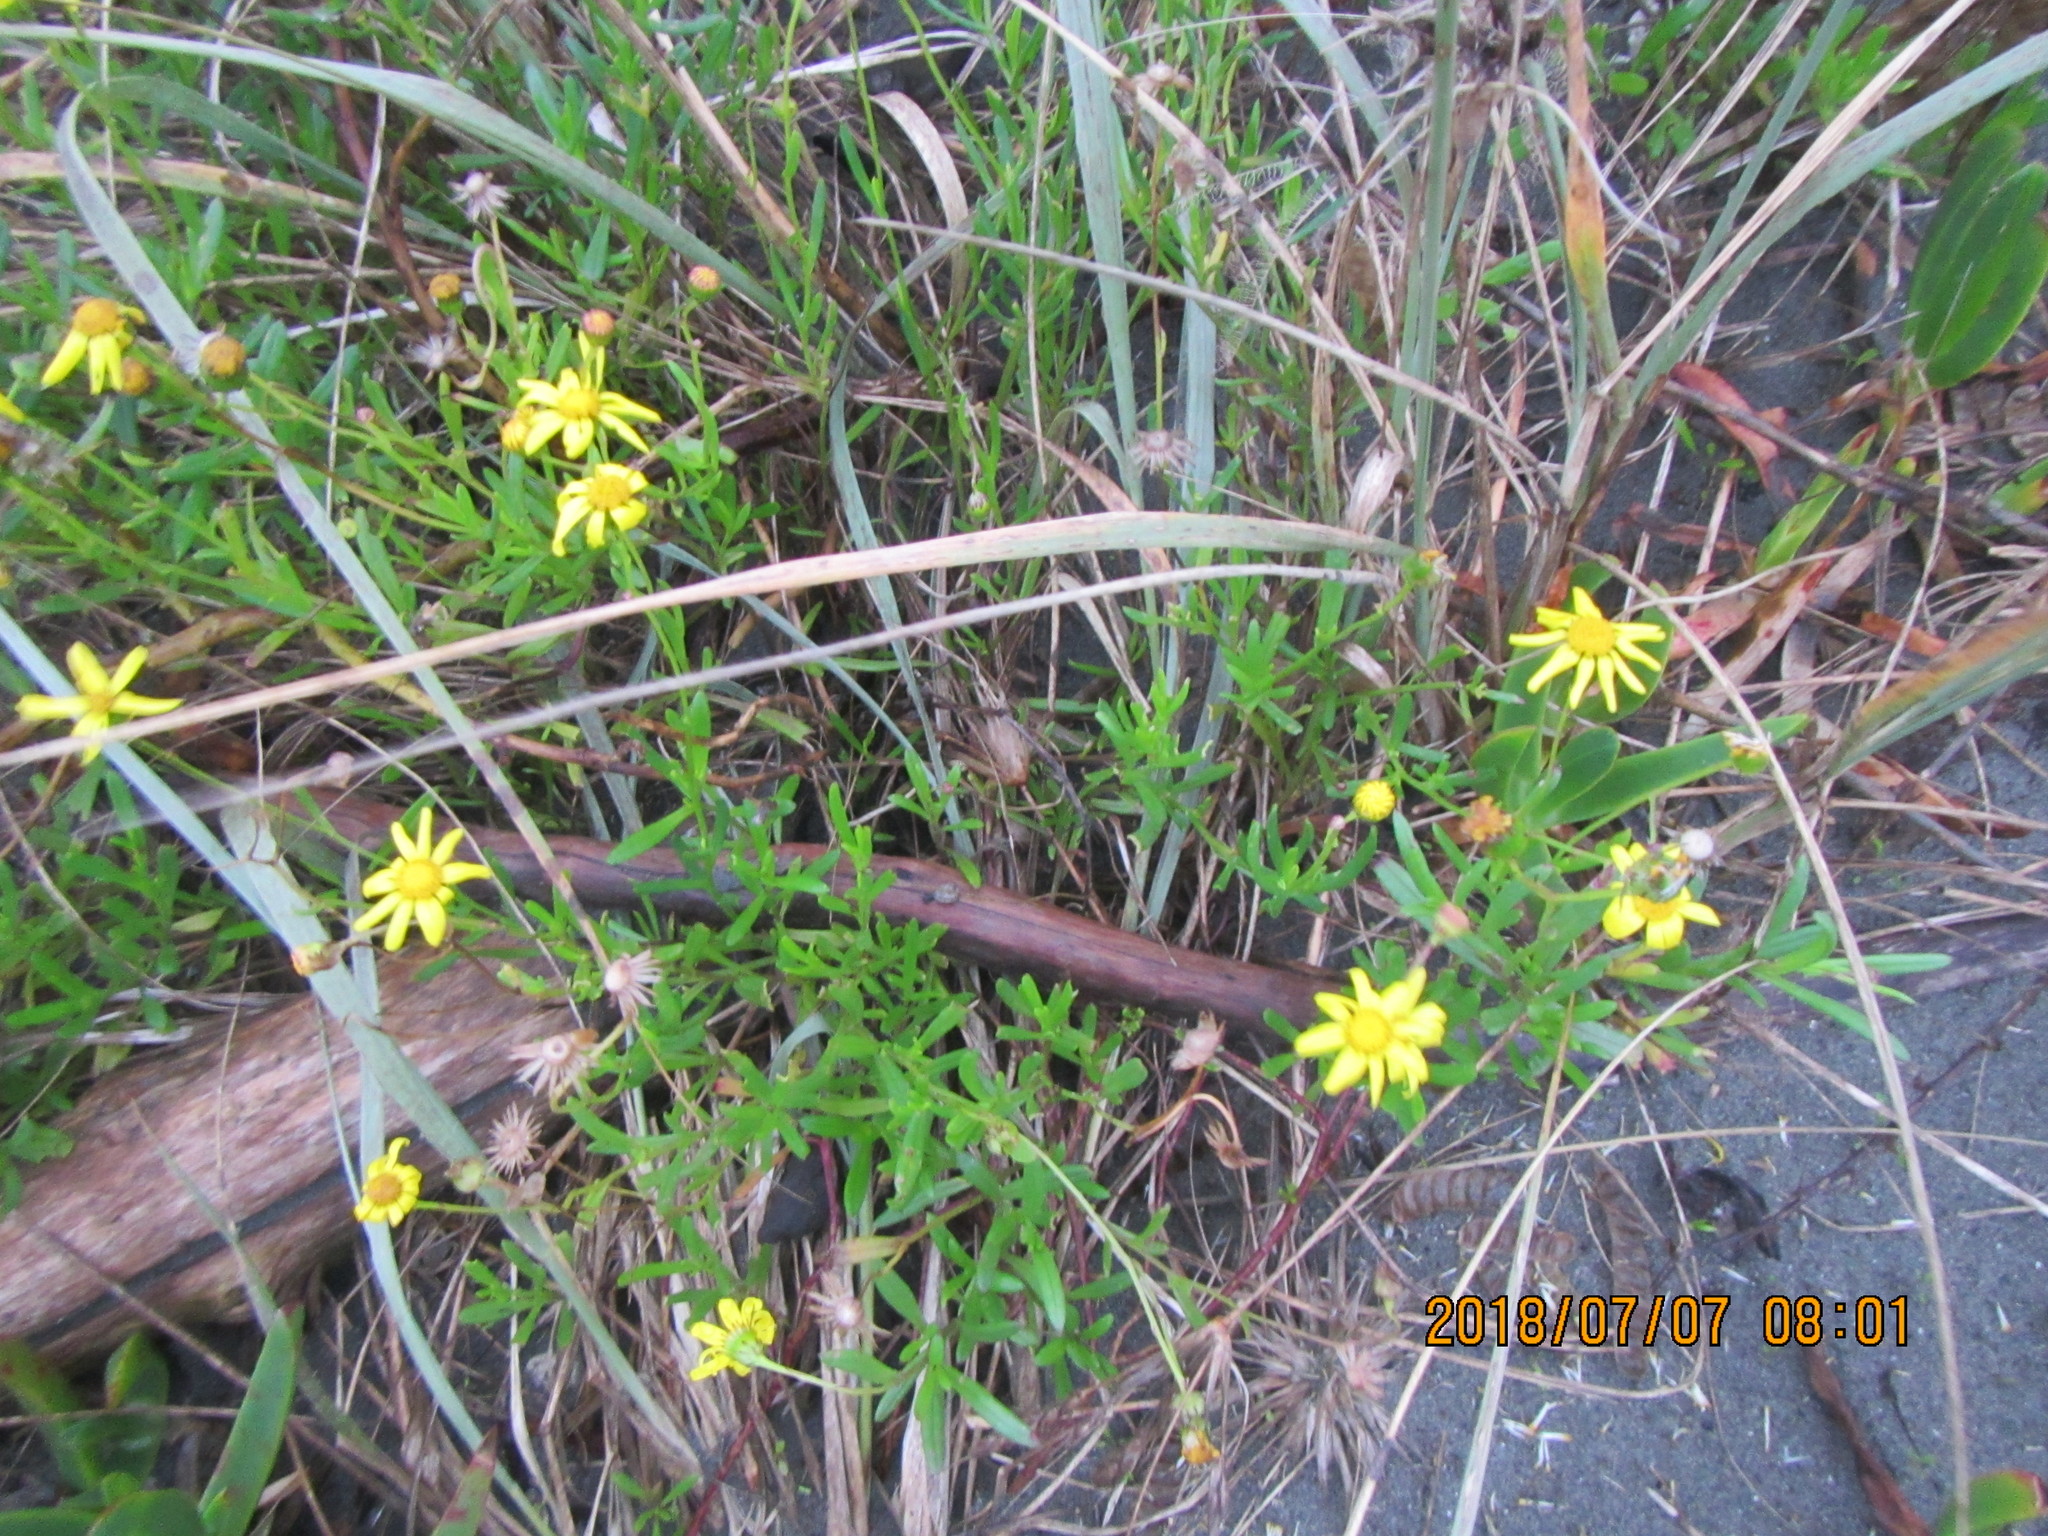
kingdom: Plantae
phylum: Tracheophyta
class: Magnoliopsida
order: Asterales
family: Asteraceae
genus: Senecio
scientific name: Senecio skirrhodon
